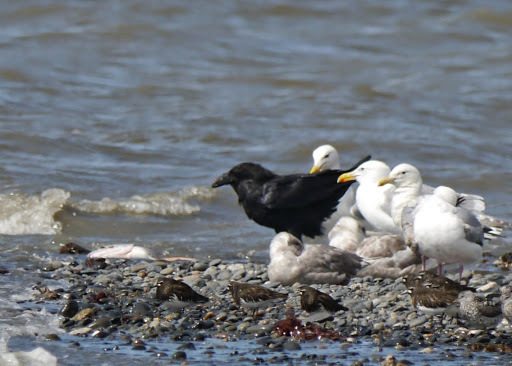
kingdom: Animalia
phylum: Chordata
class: Aves
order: Passeriformes
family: Corvidae
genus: Corvus
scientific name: Corvus corax
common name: Common raven
